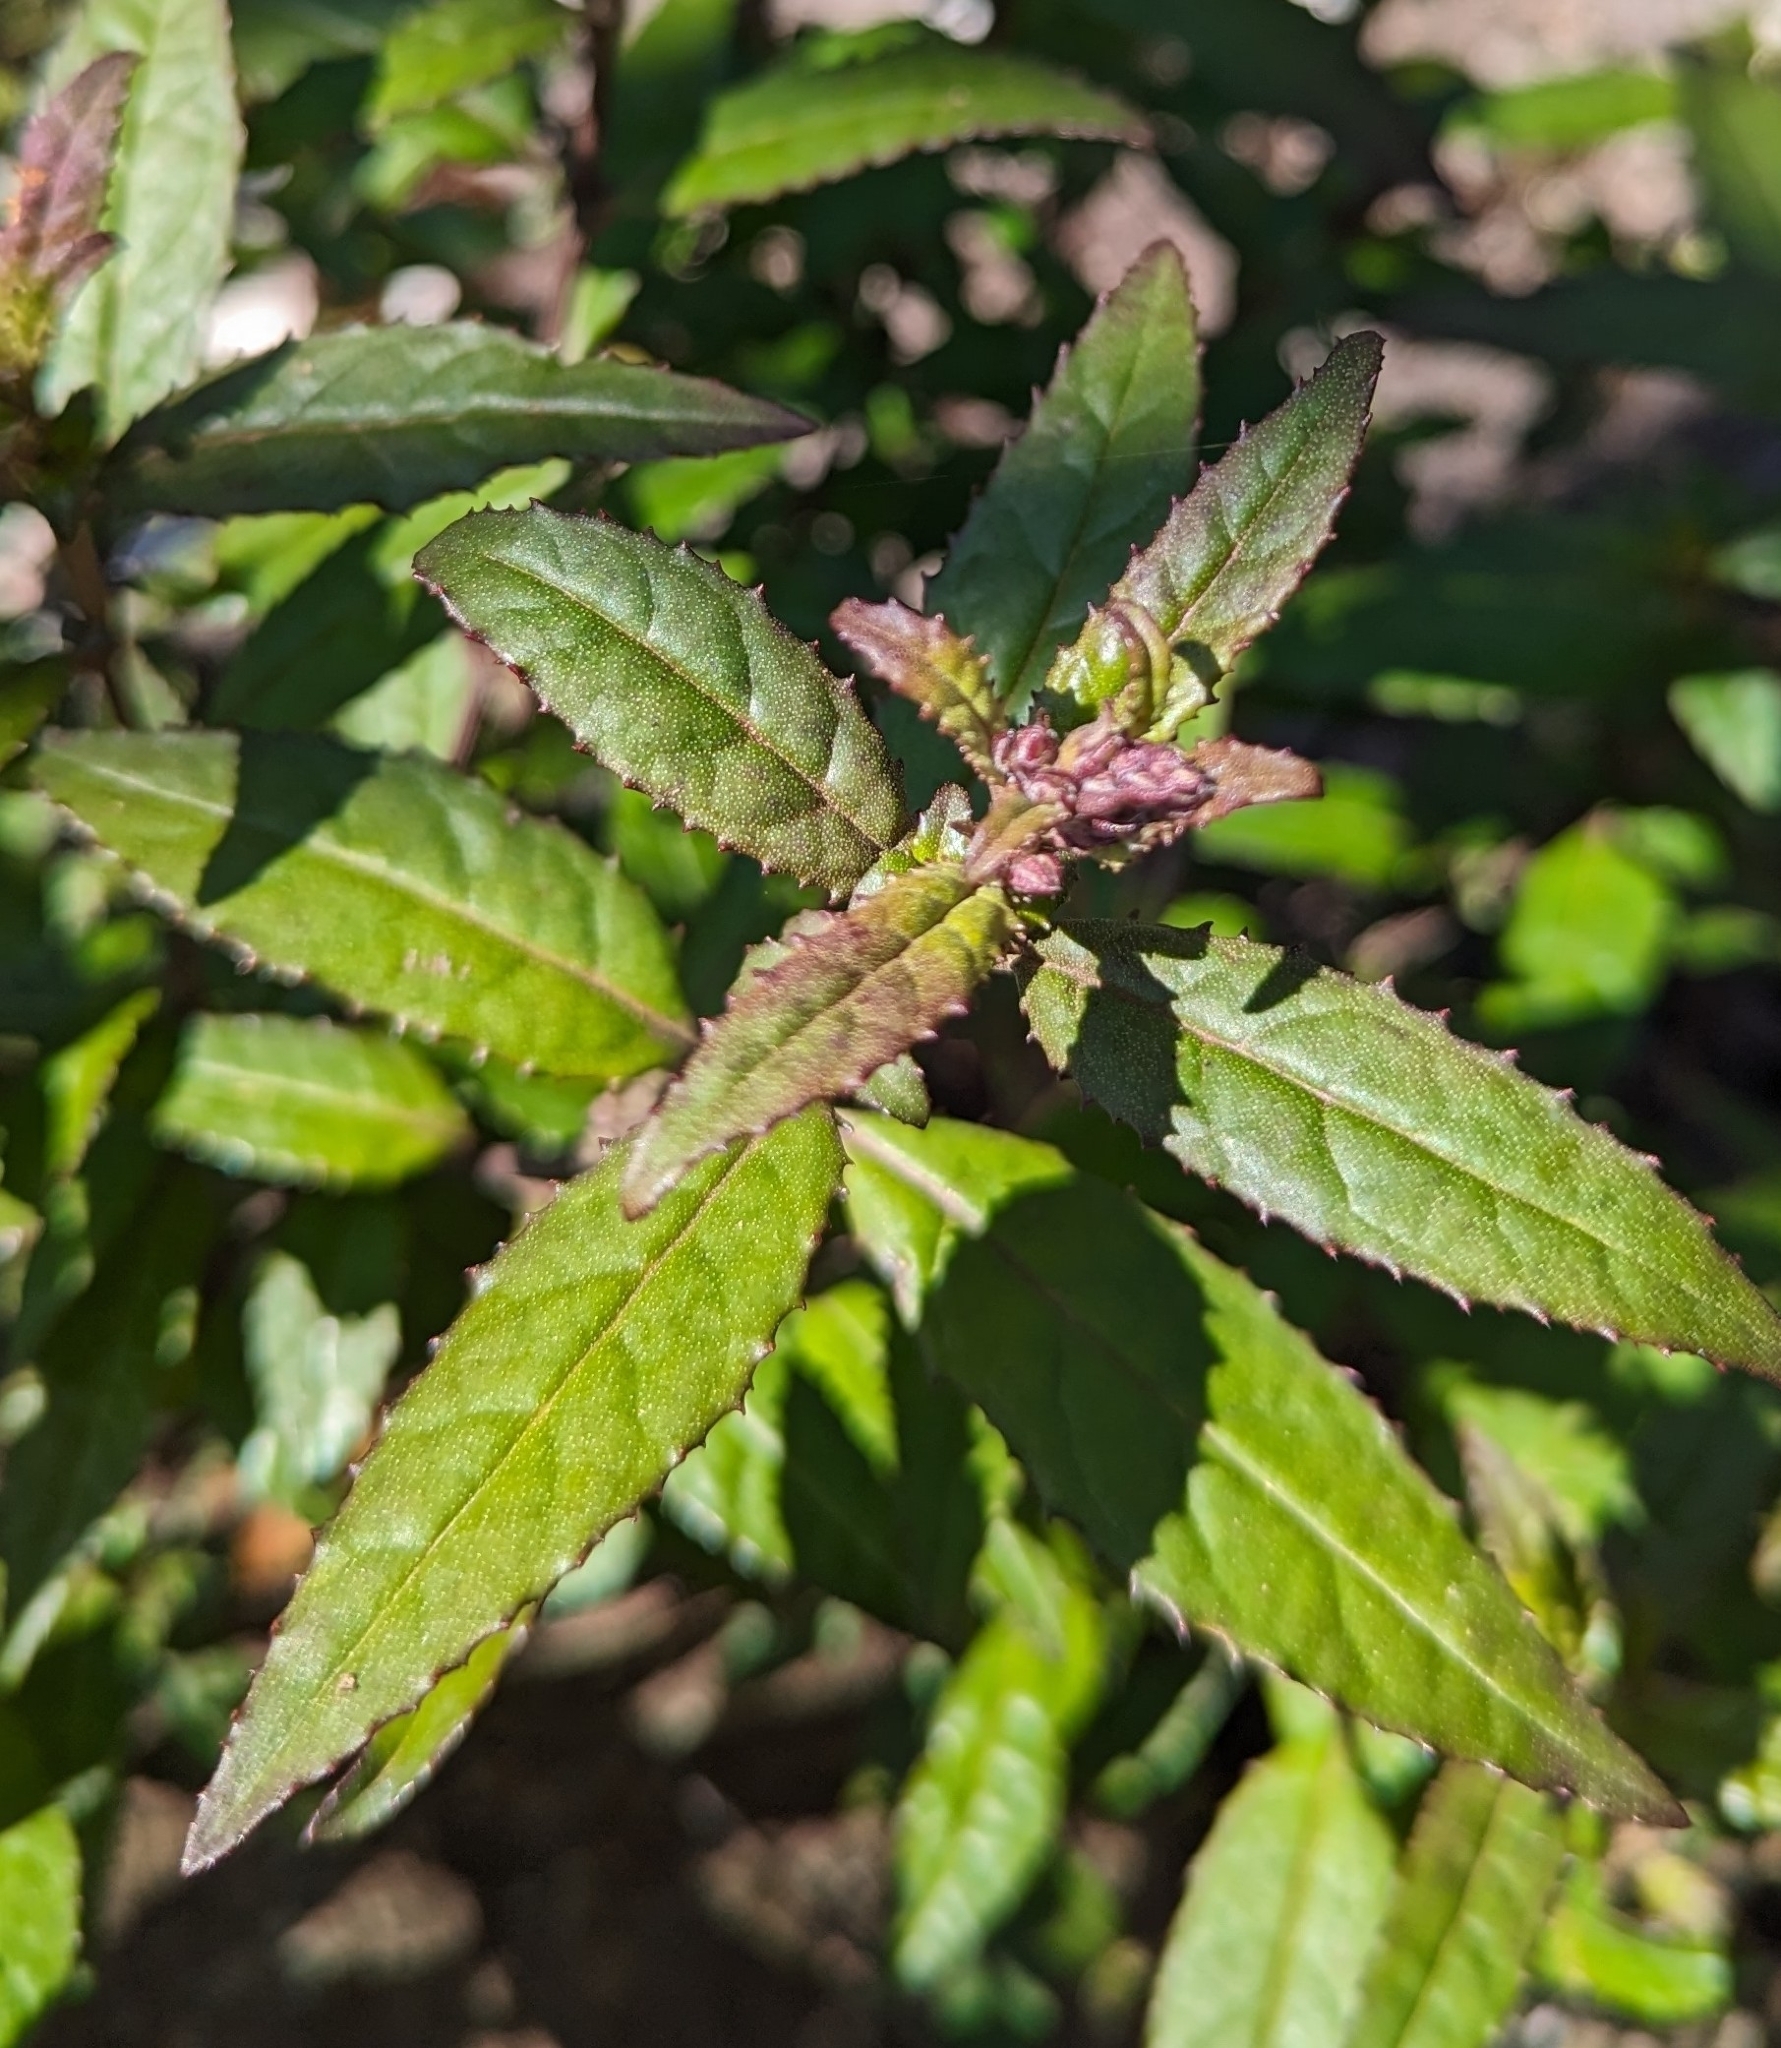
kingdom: Plantae
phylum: Tracheophyta
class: Magnoliopsida
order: Lamiales
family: Lamiaceae
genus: Prostanthera
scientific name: Prostanthera lasianthos
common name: Mountain-lilac
